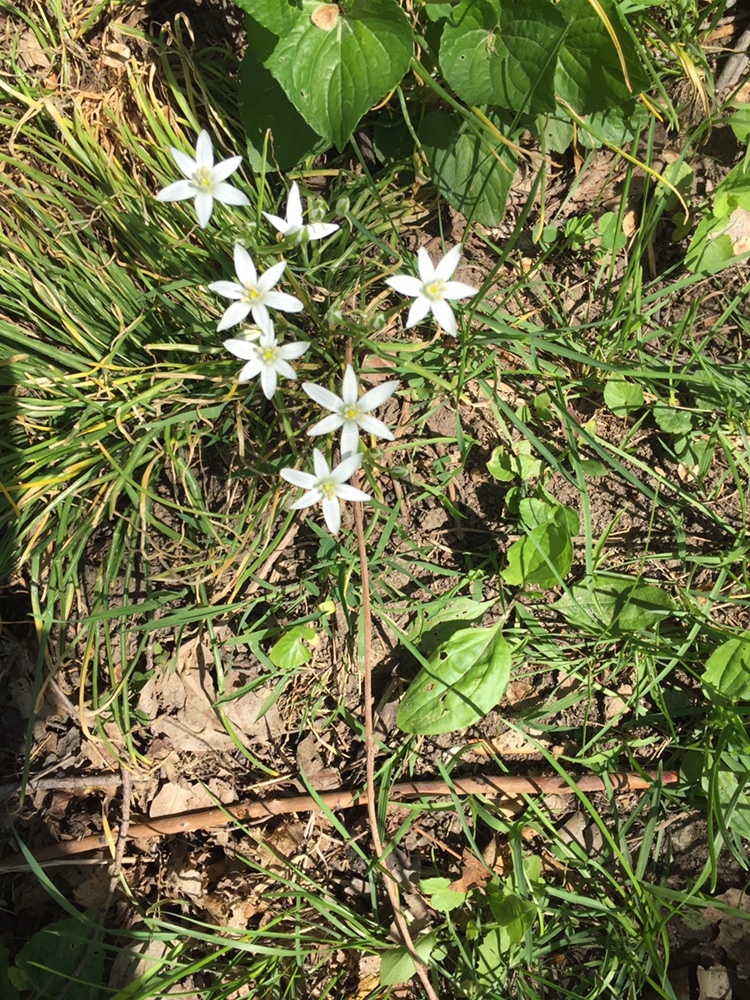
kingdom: Plantae
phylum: Tracheophyta
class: Liliopsida
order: Asparagales
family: Asparagaceae
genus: Ornithogalum
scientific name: Ornithogalum umbellatum
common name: Garden star-of-bethlehem
